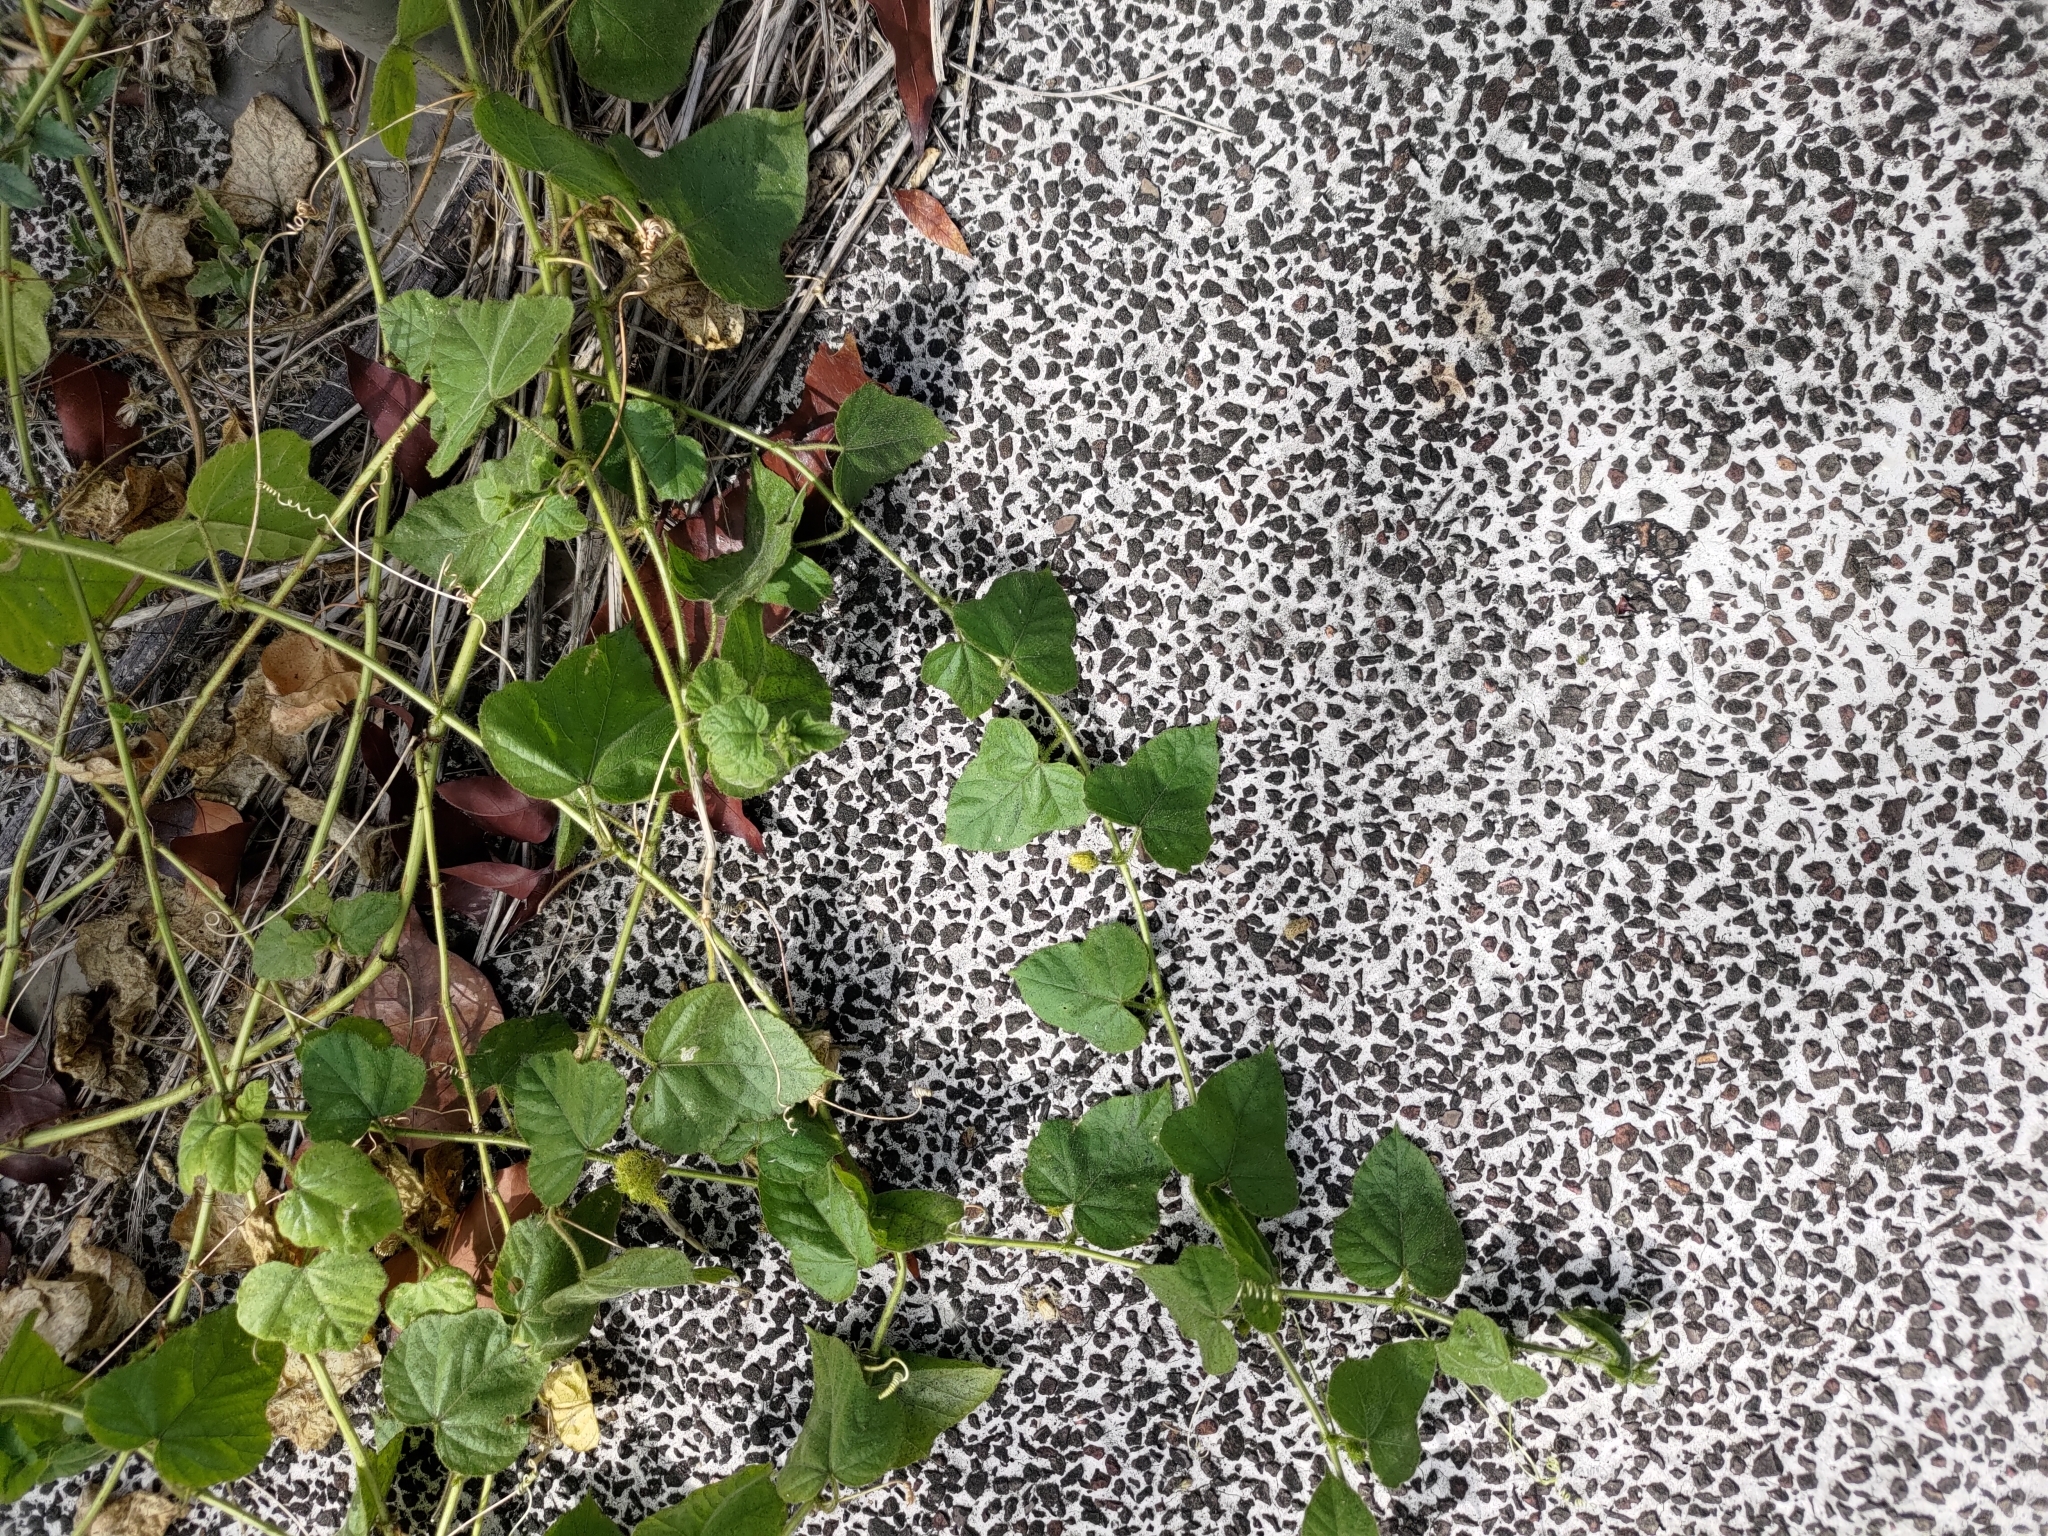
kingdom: Plantae
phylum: Tracheophyta
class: Magnoliopsida
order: Malpighiales
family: Passifloraceae
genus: Passiflora
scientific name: Passiflora vesicaria
